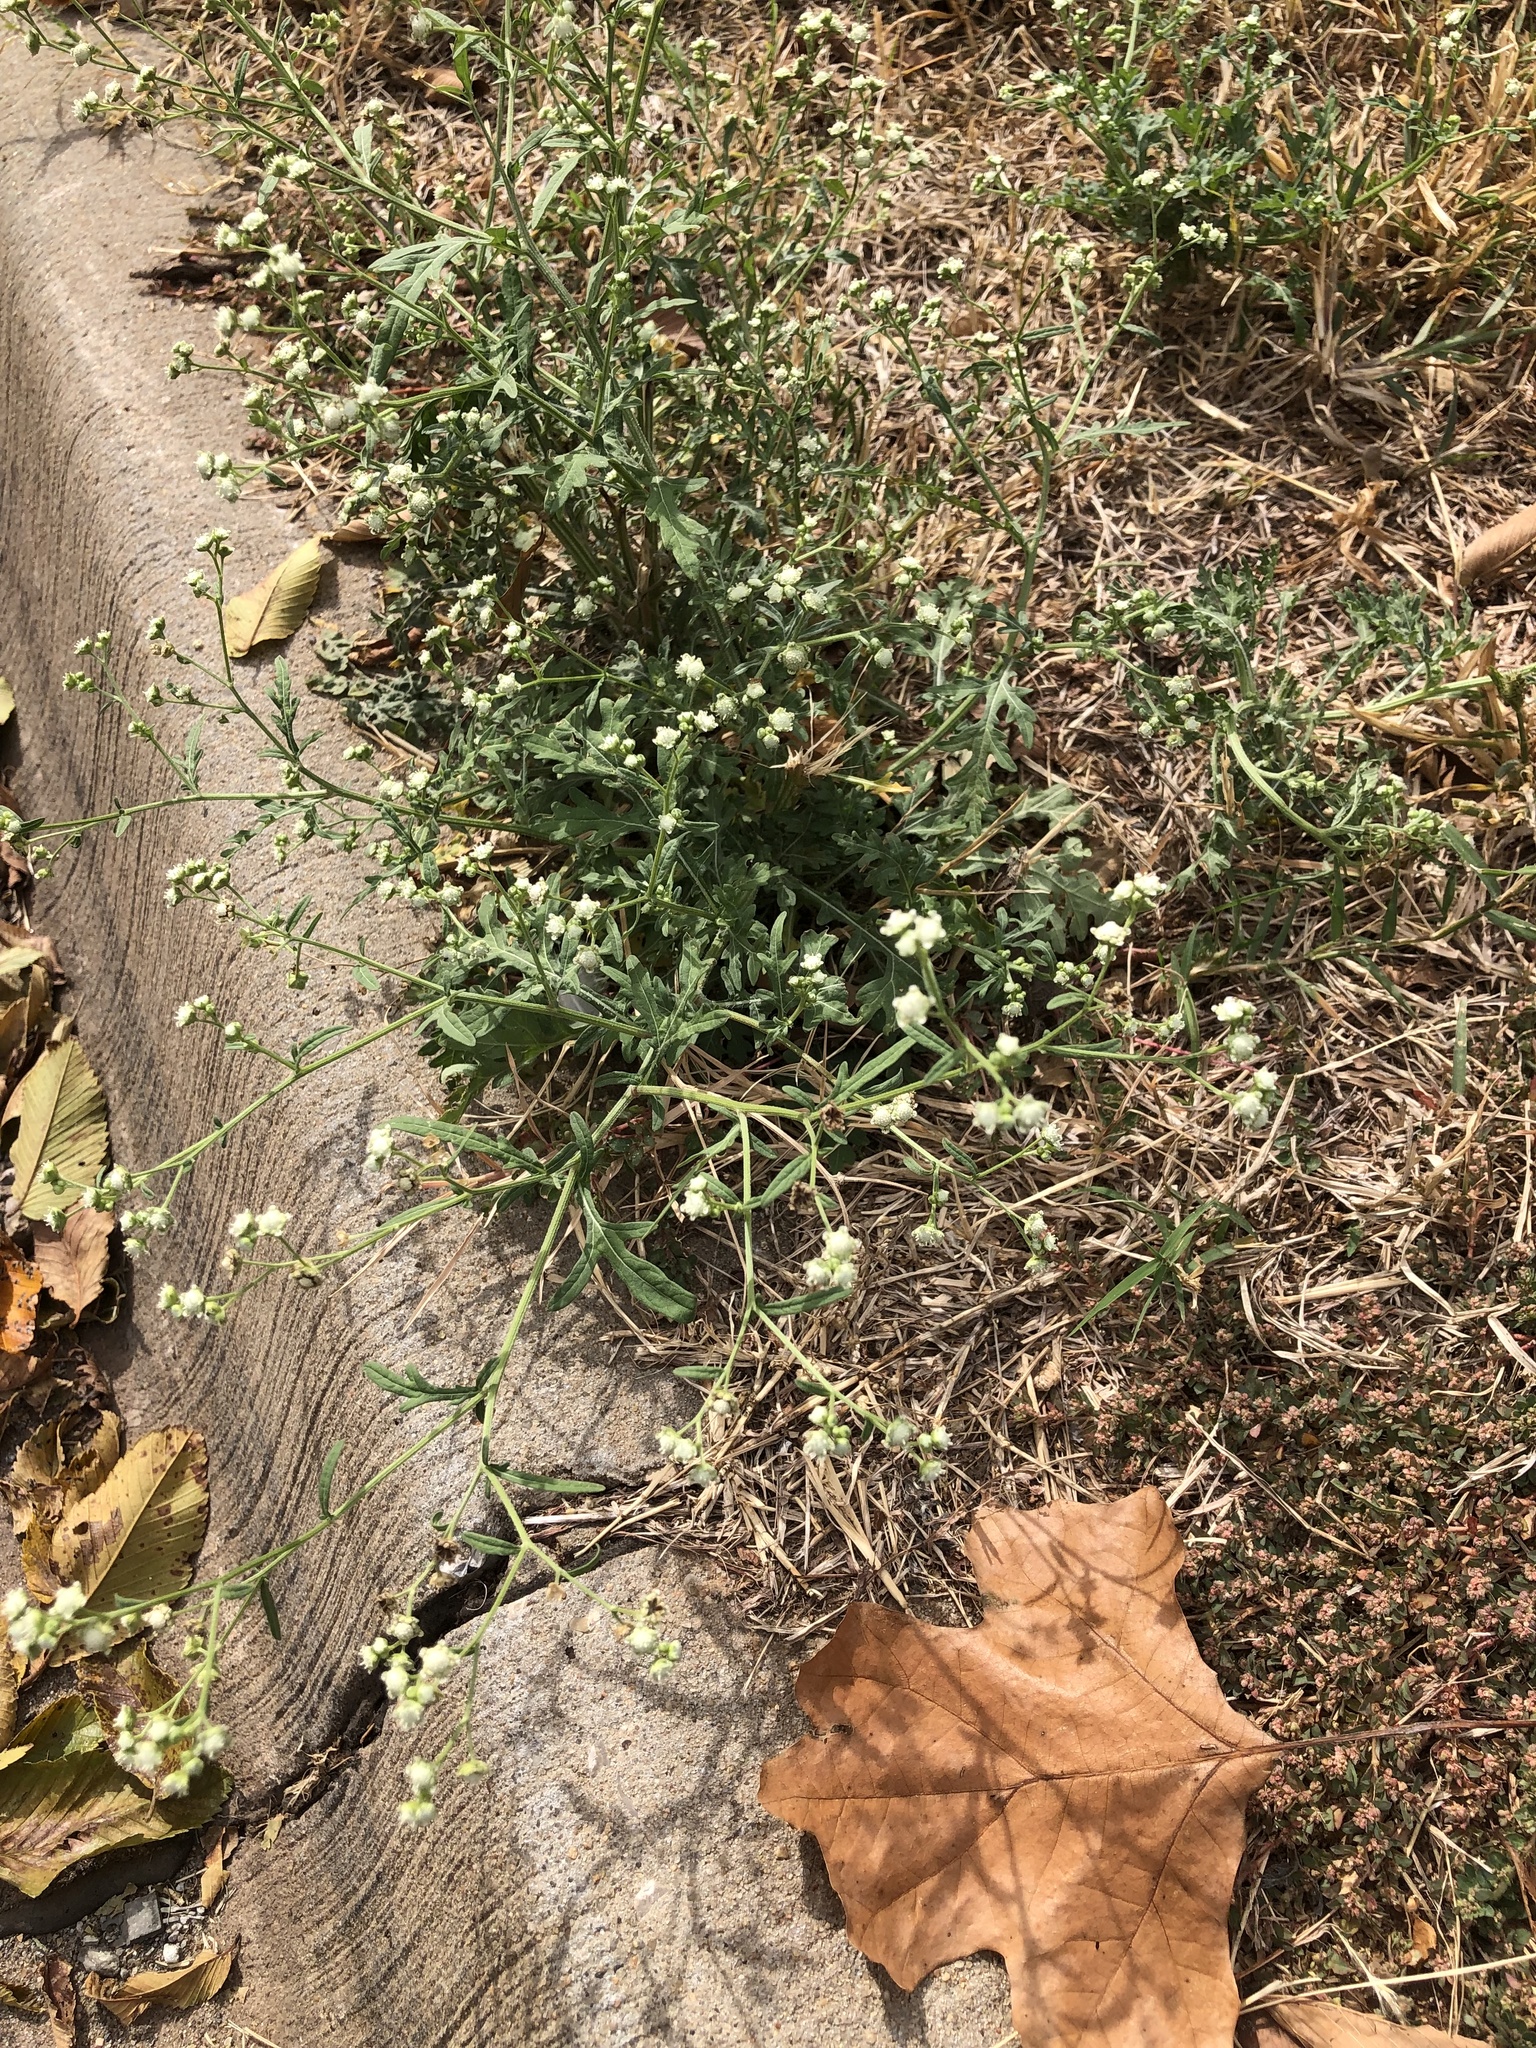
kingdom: Plantae
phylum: Tracheophyta
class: Magnoliopsida
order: Asterales
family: Asteraceae
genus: Parthenium
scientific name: Parthenium hysterophorus
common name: Santa maria feverfew
